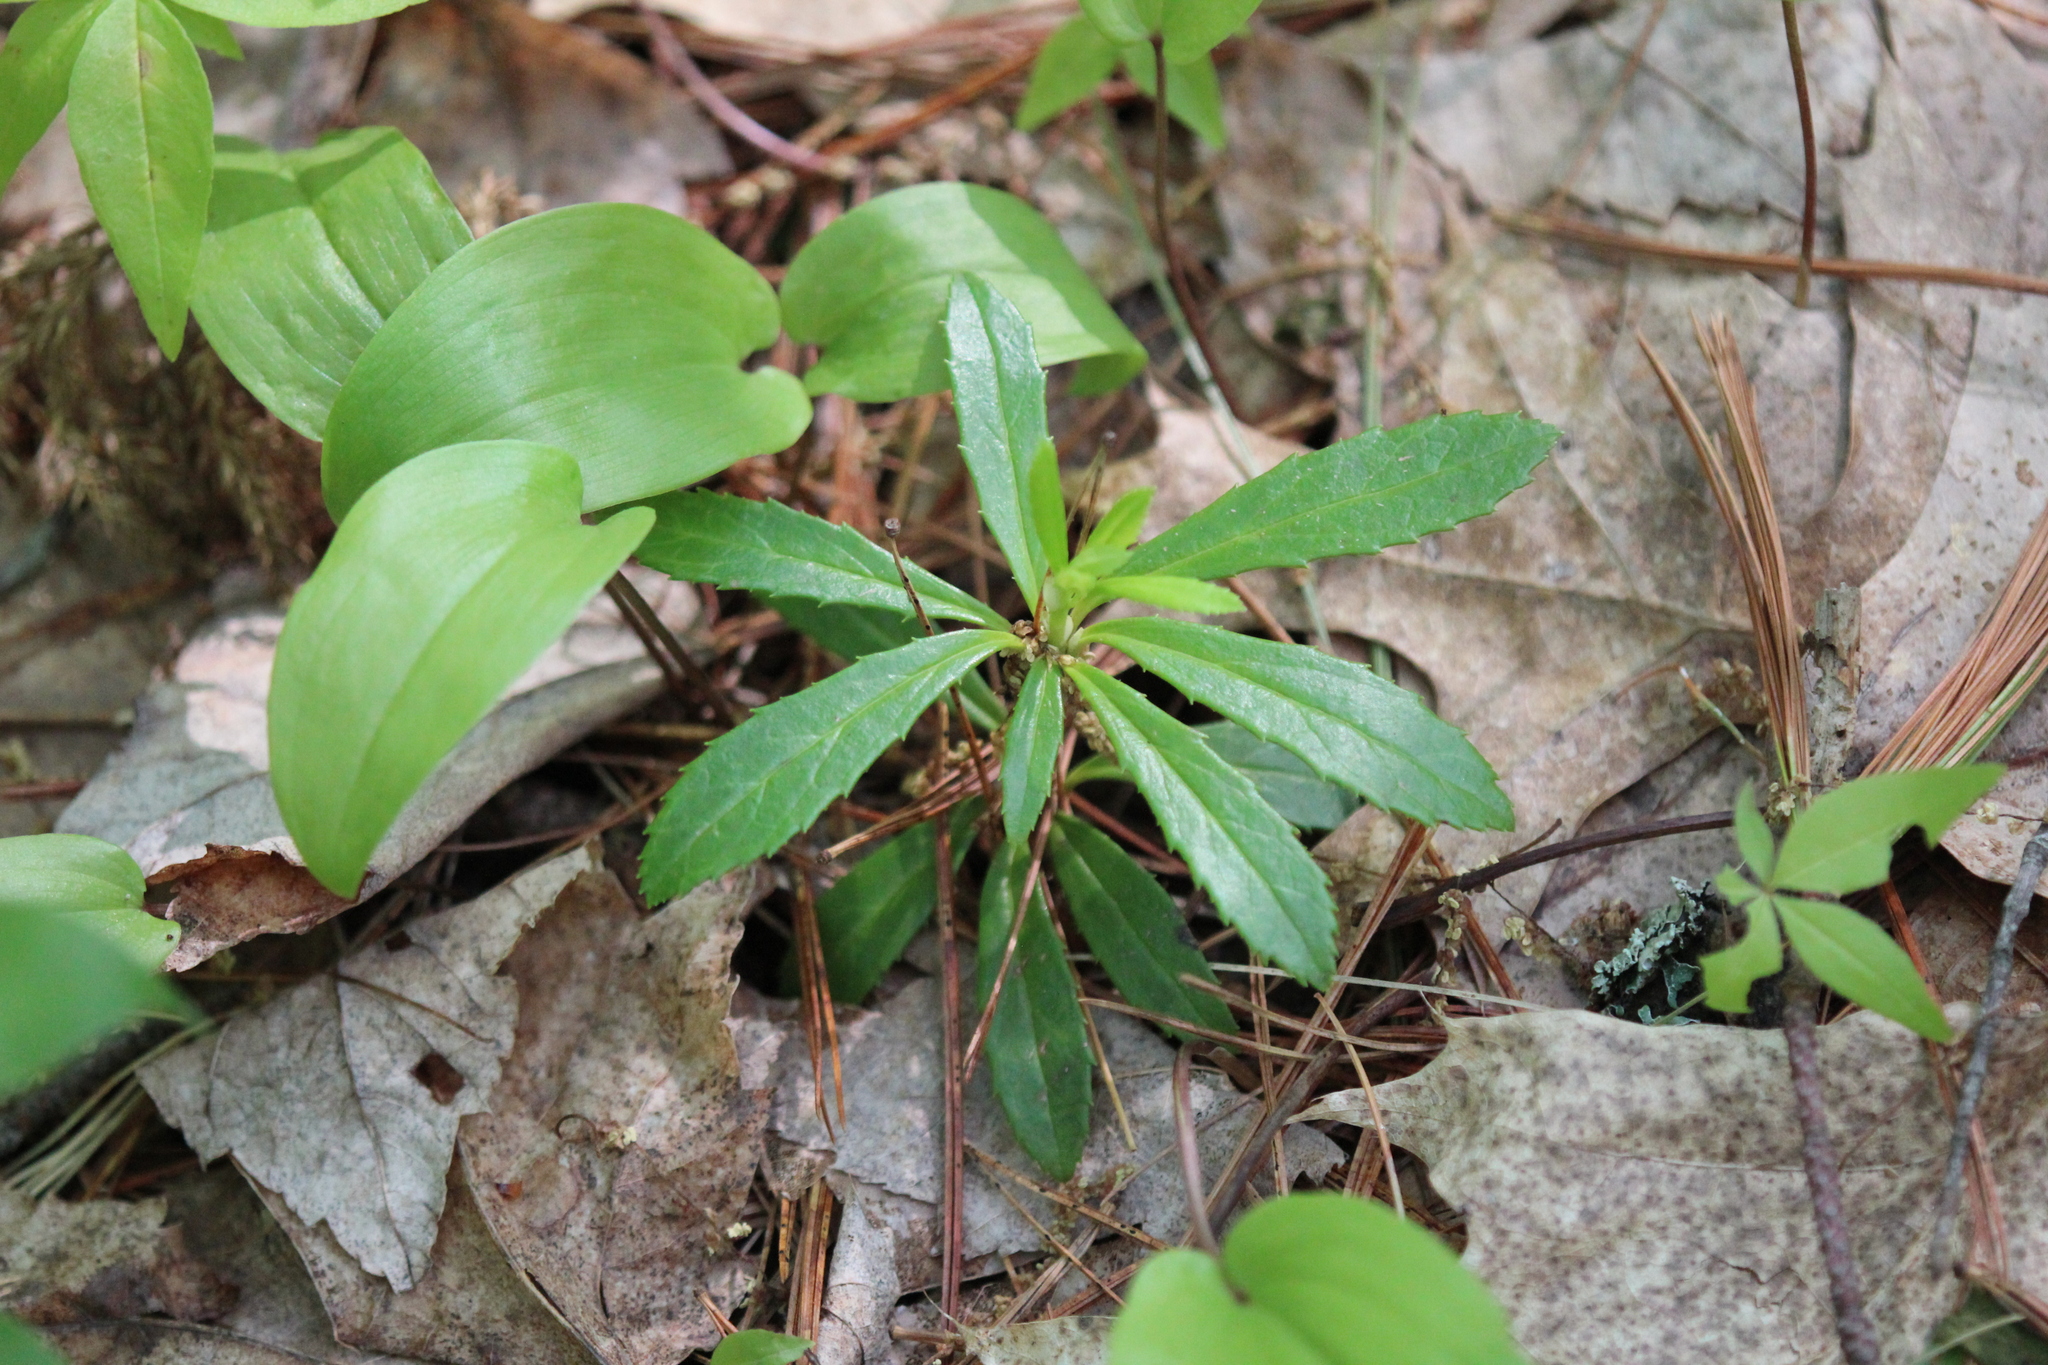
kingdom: Plantae
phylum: Tracheophyta
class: Magnoliopsida
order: Ericales
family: Ericaceae
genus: Chimaphila
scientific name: Chimaphila umbellata
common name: Pipsissewa
